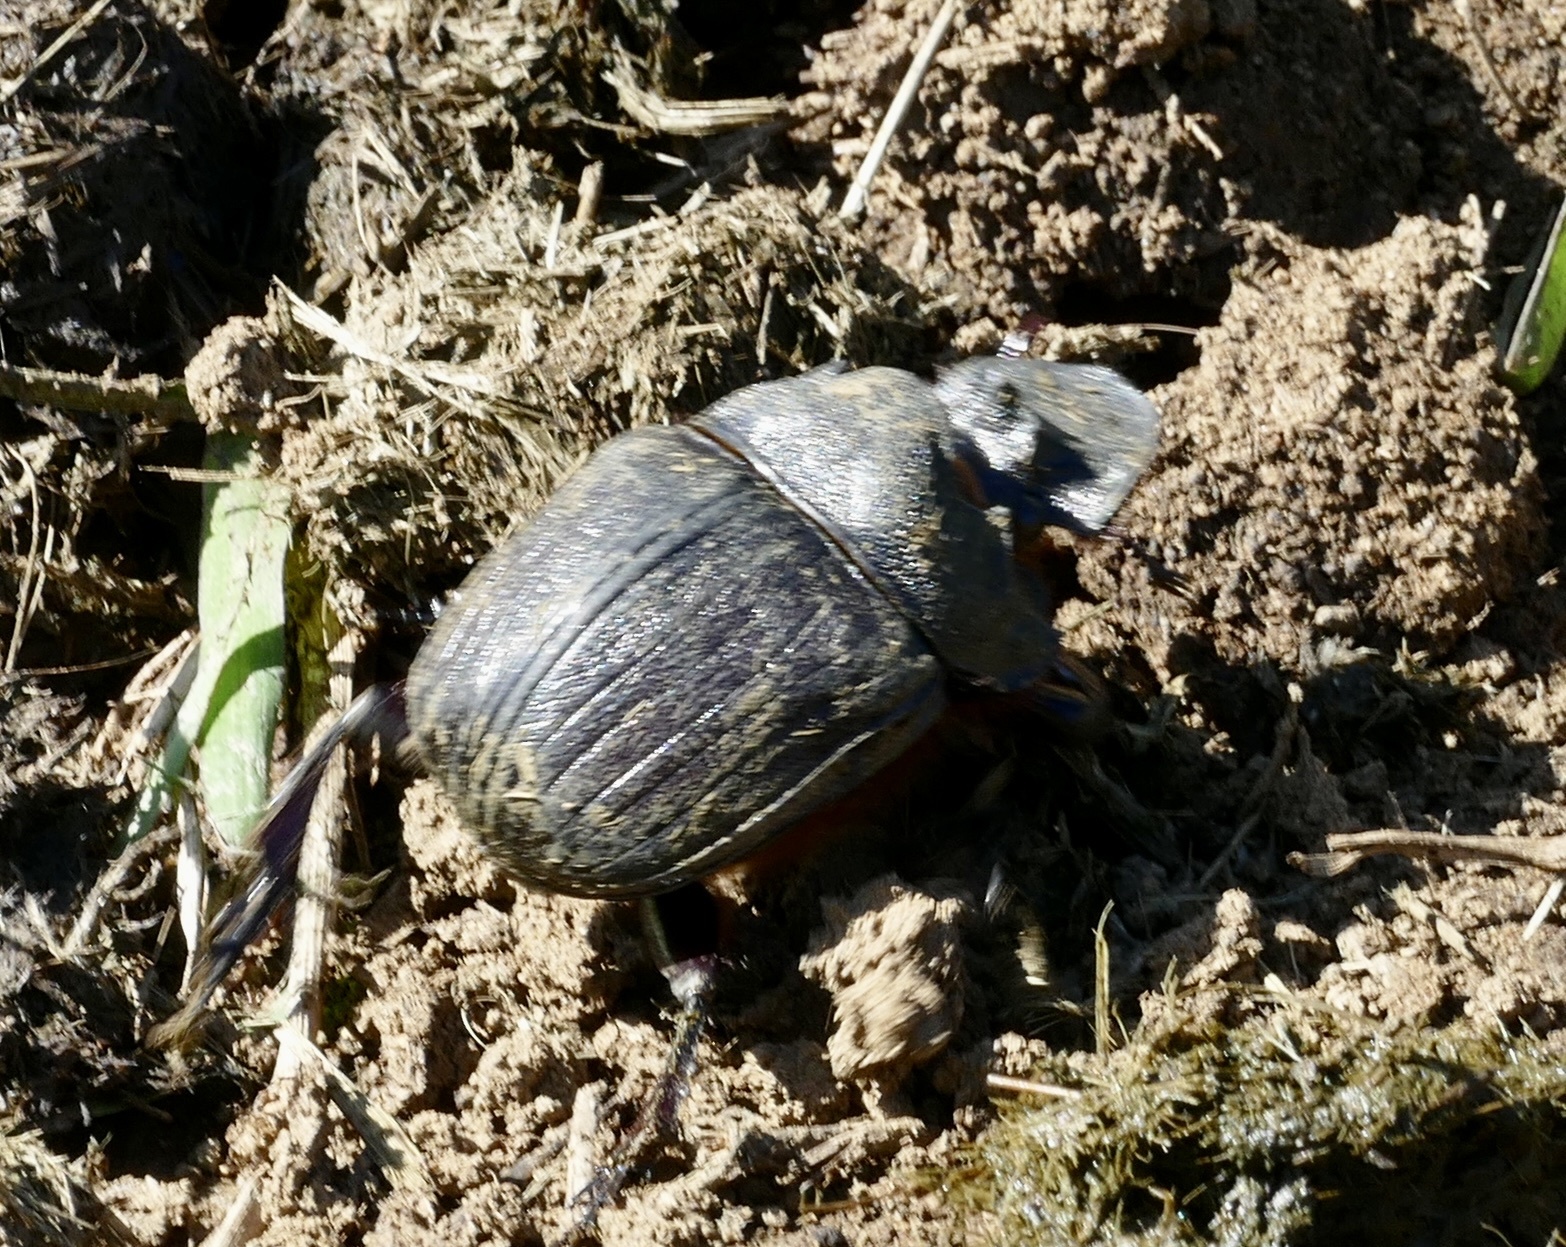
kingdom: Animalia
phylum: Arthropoda
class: Insecta
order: Coleoptera
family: Scarabaeidae
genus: Heliocopris
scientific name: Heliocopris andersoni
